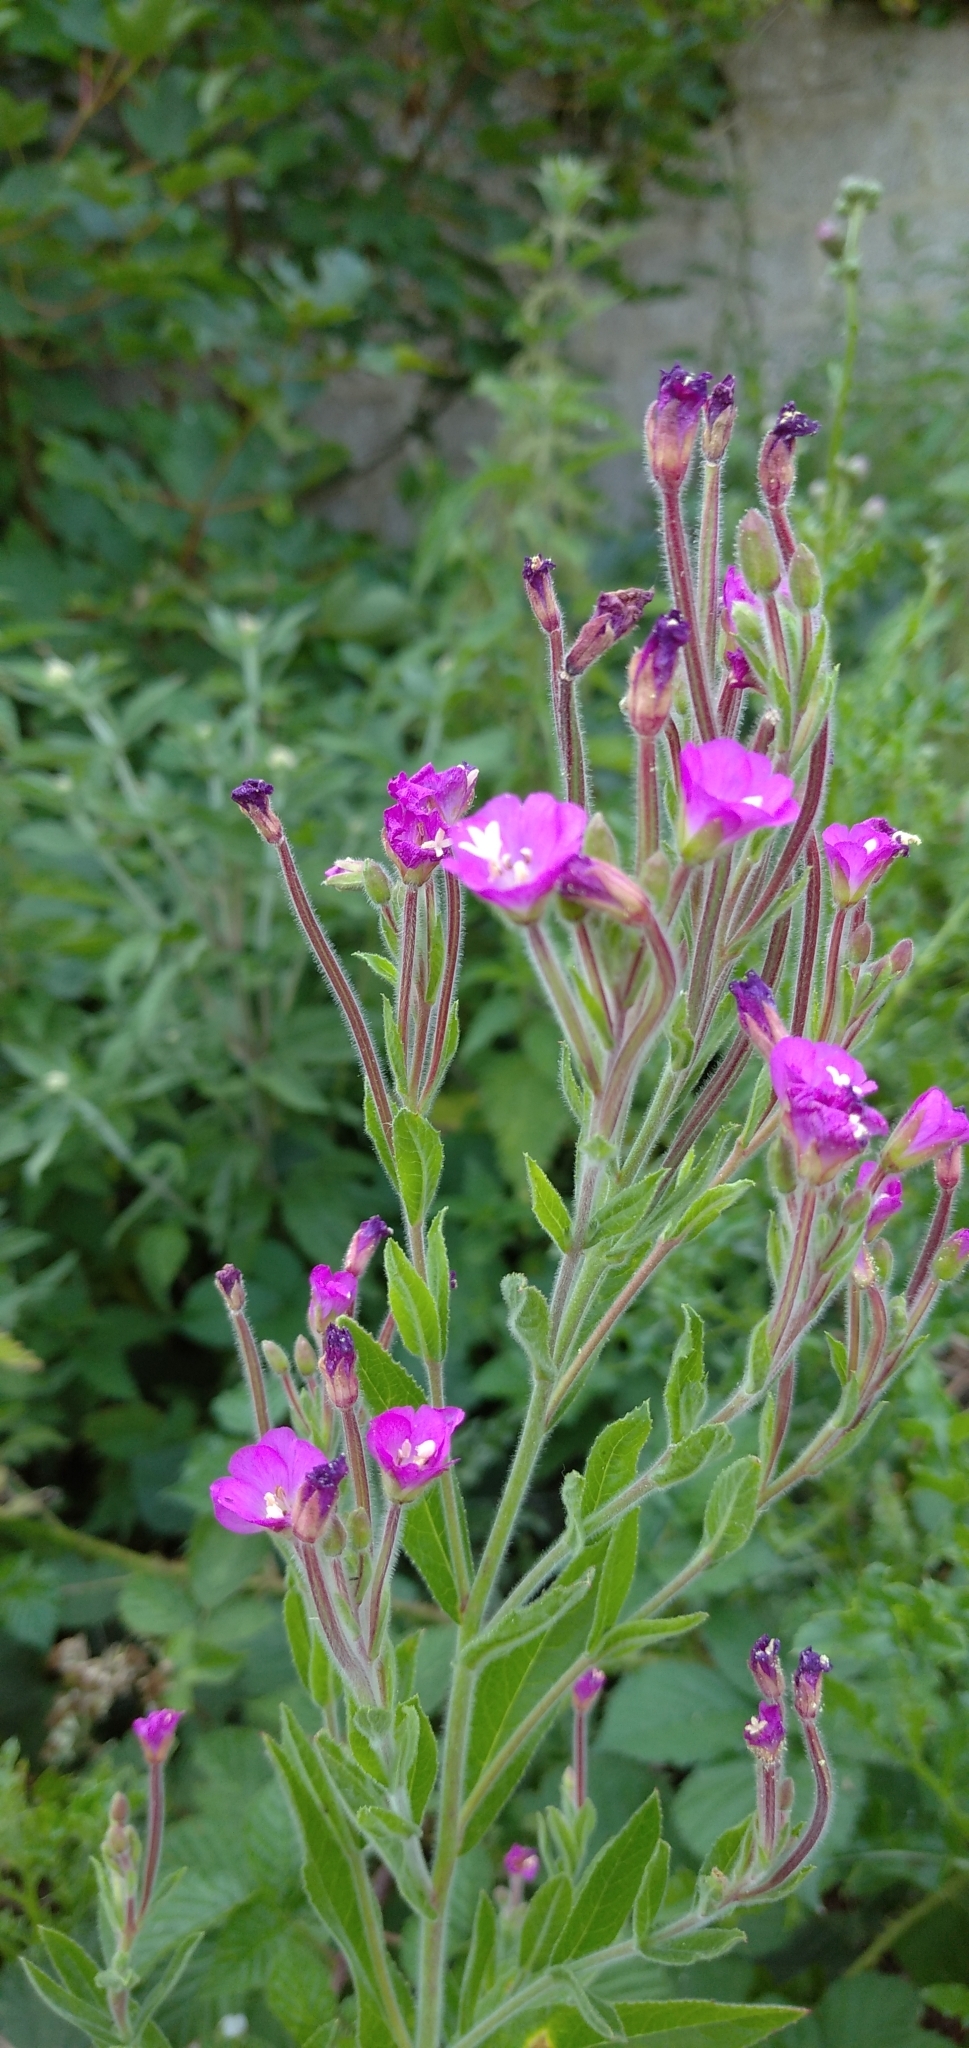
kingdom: Plantae
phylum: Tracheophyta
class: Magnoliopsida
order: Myrtales
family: Onagraceae
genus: Epilobium
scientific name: Epilobium hirsutum
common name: Great willowherb
